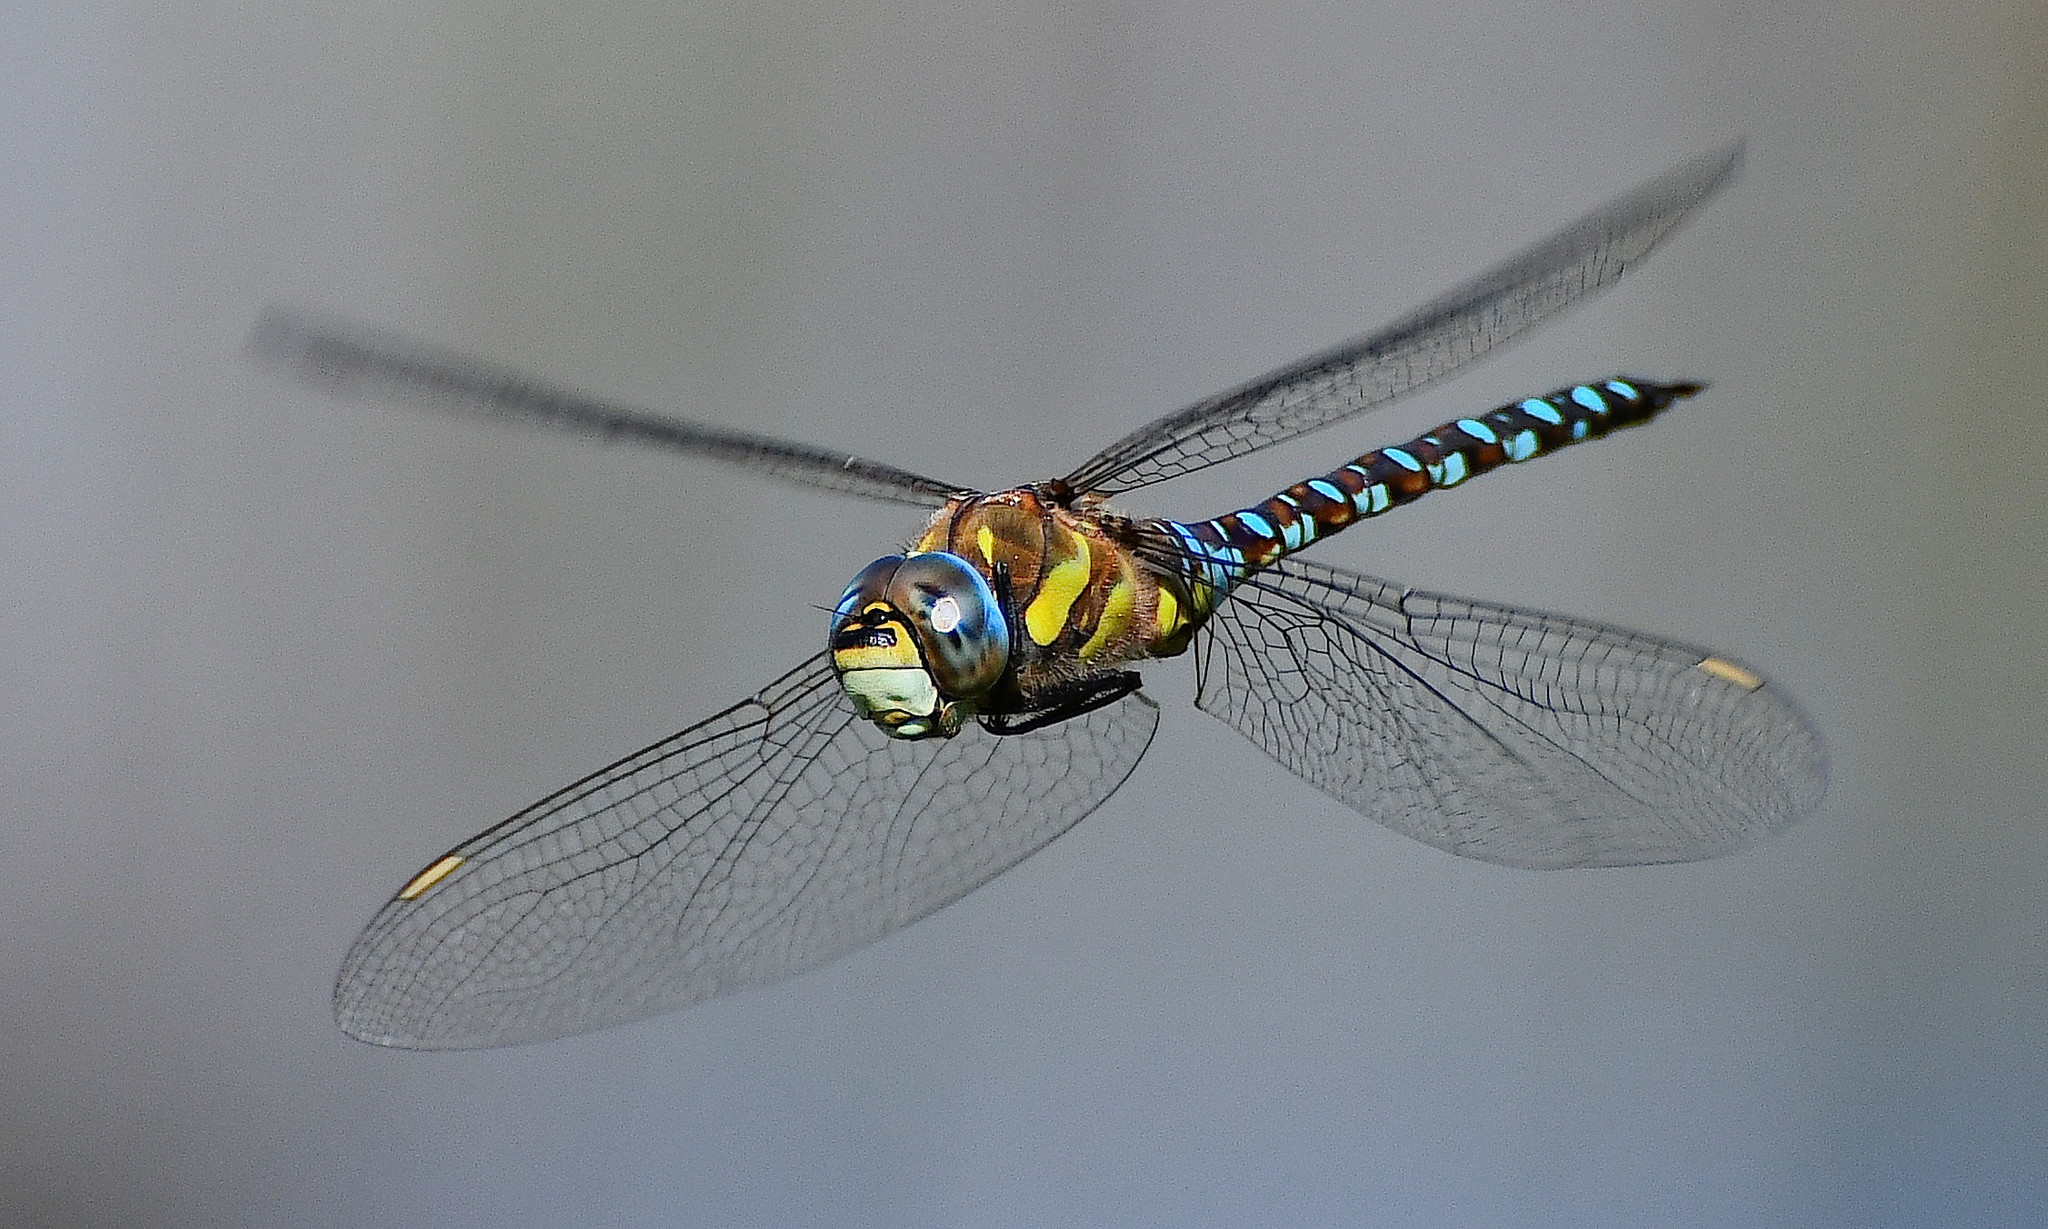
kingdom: Animalia
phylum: Arthropoda
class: Insecta
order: Odonata
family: Aeshnidae
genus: Aeshna
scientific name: Aeshna mixta
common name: Migrant hawker
